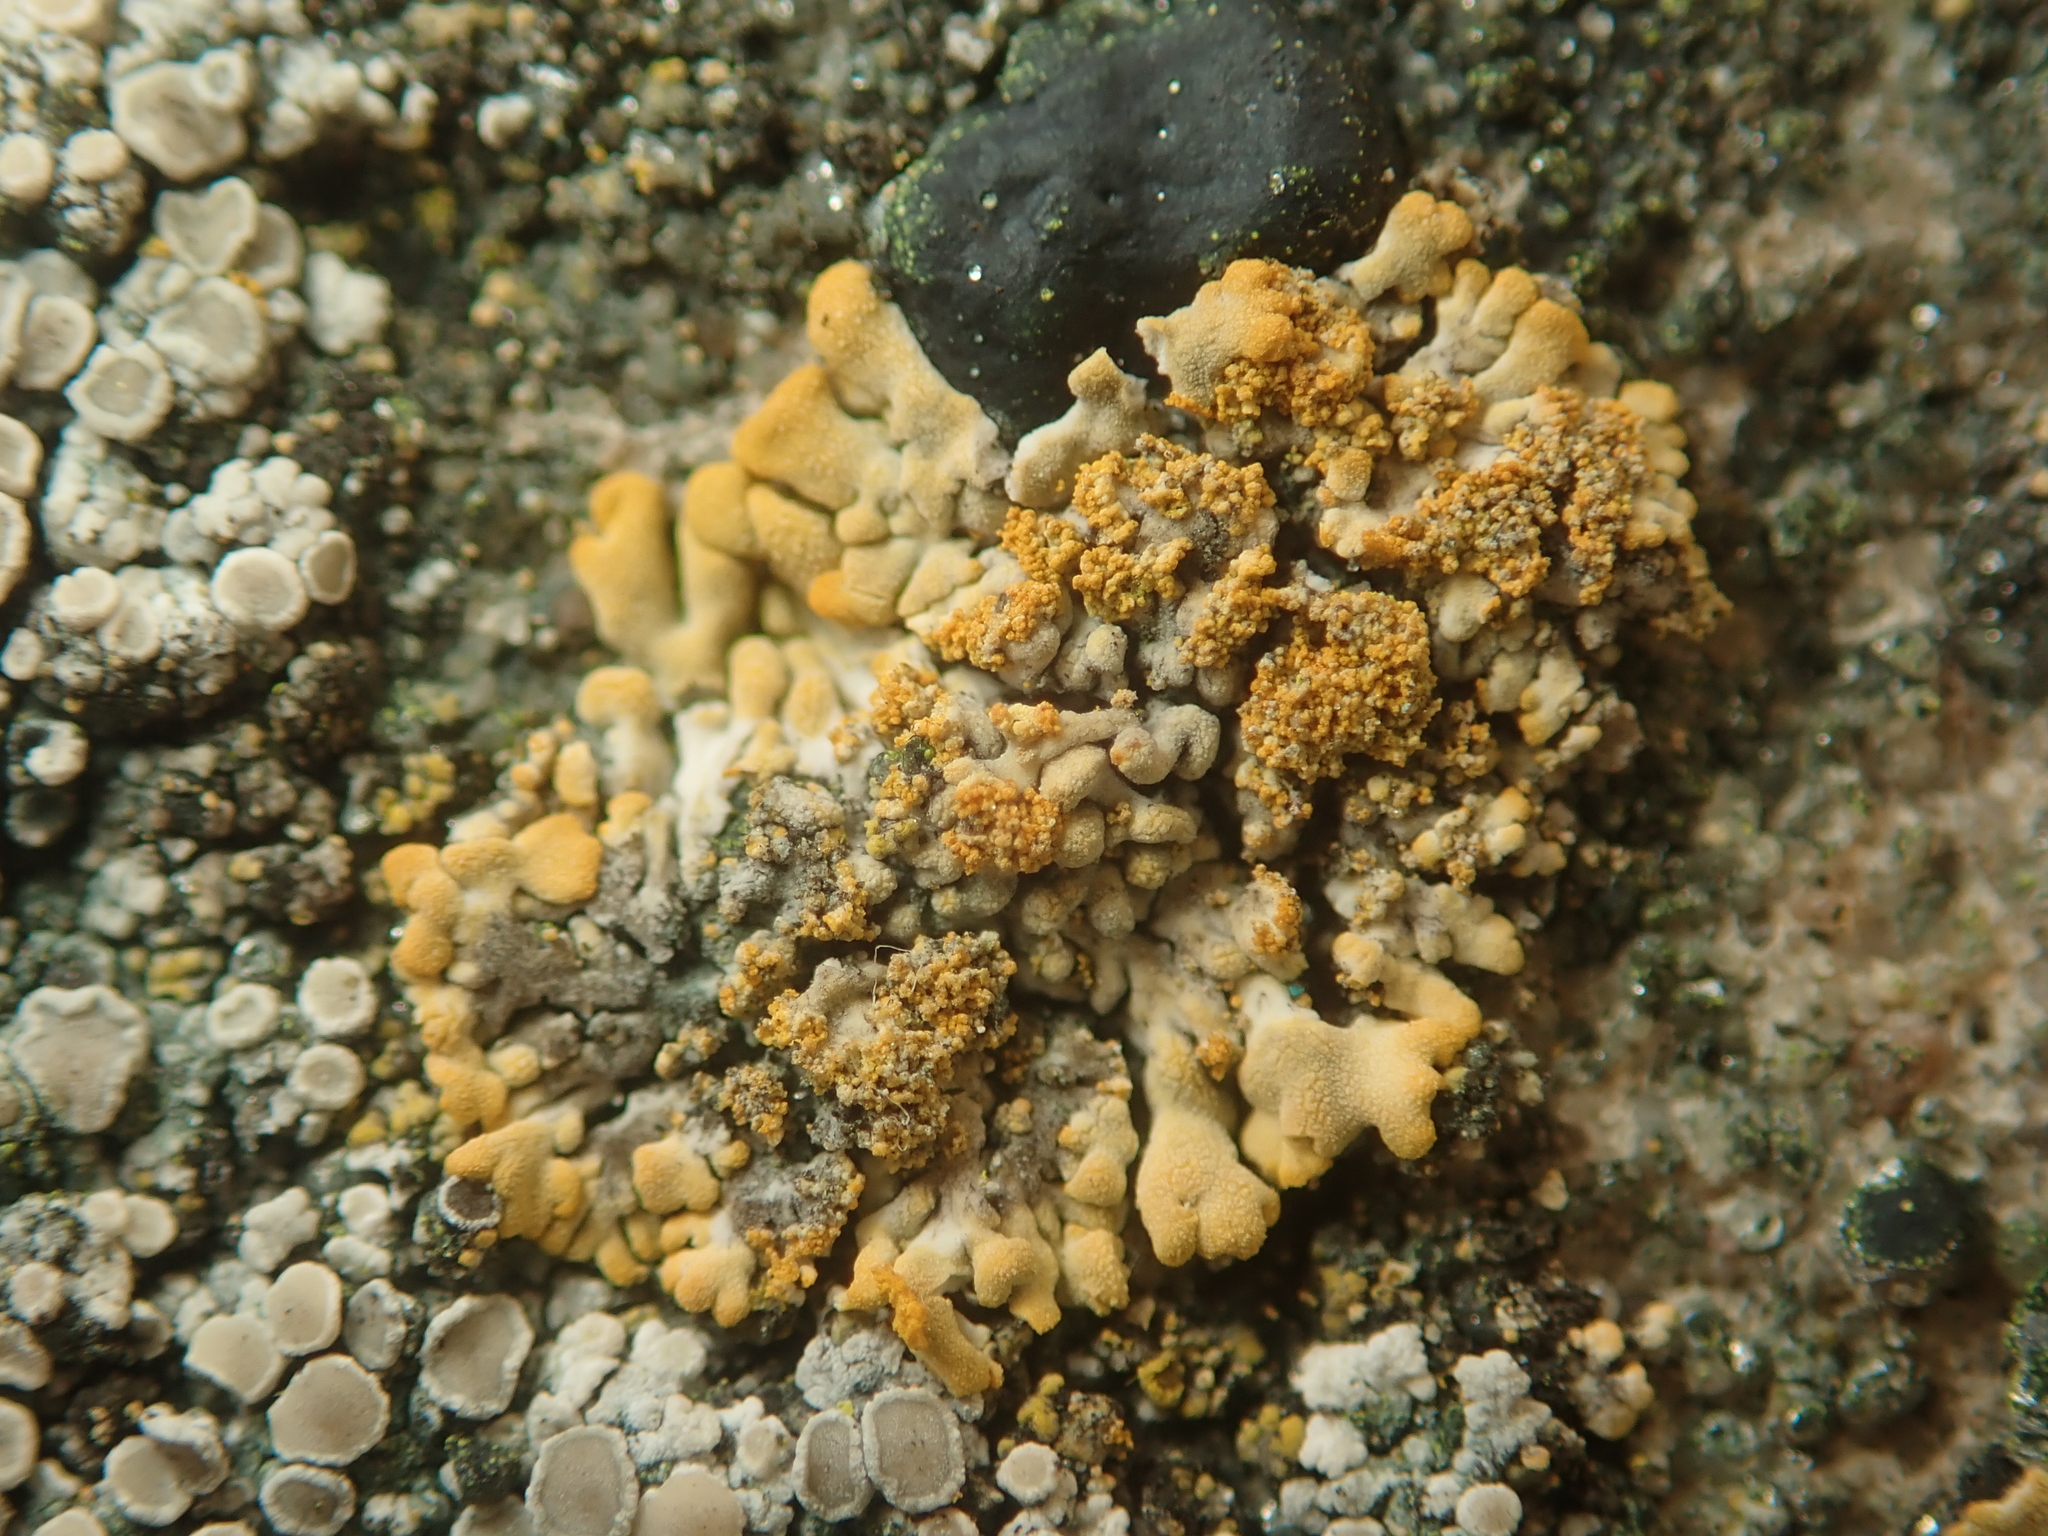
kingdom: Fungi
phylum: Ascomycota
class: Lecanoromycetes
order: Teloschistales
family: Teloschistaceae
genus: Calogaya
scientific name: Calogaya decipiens
